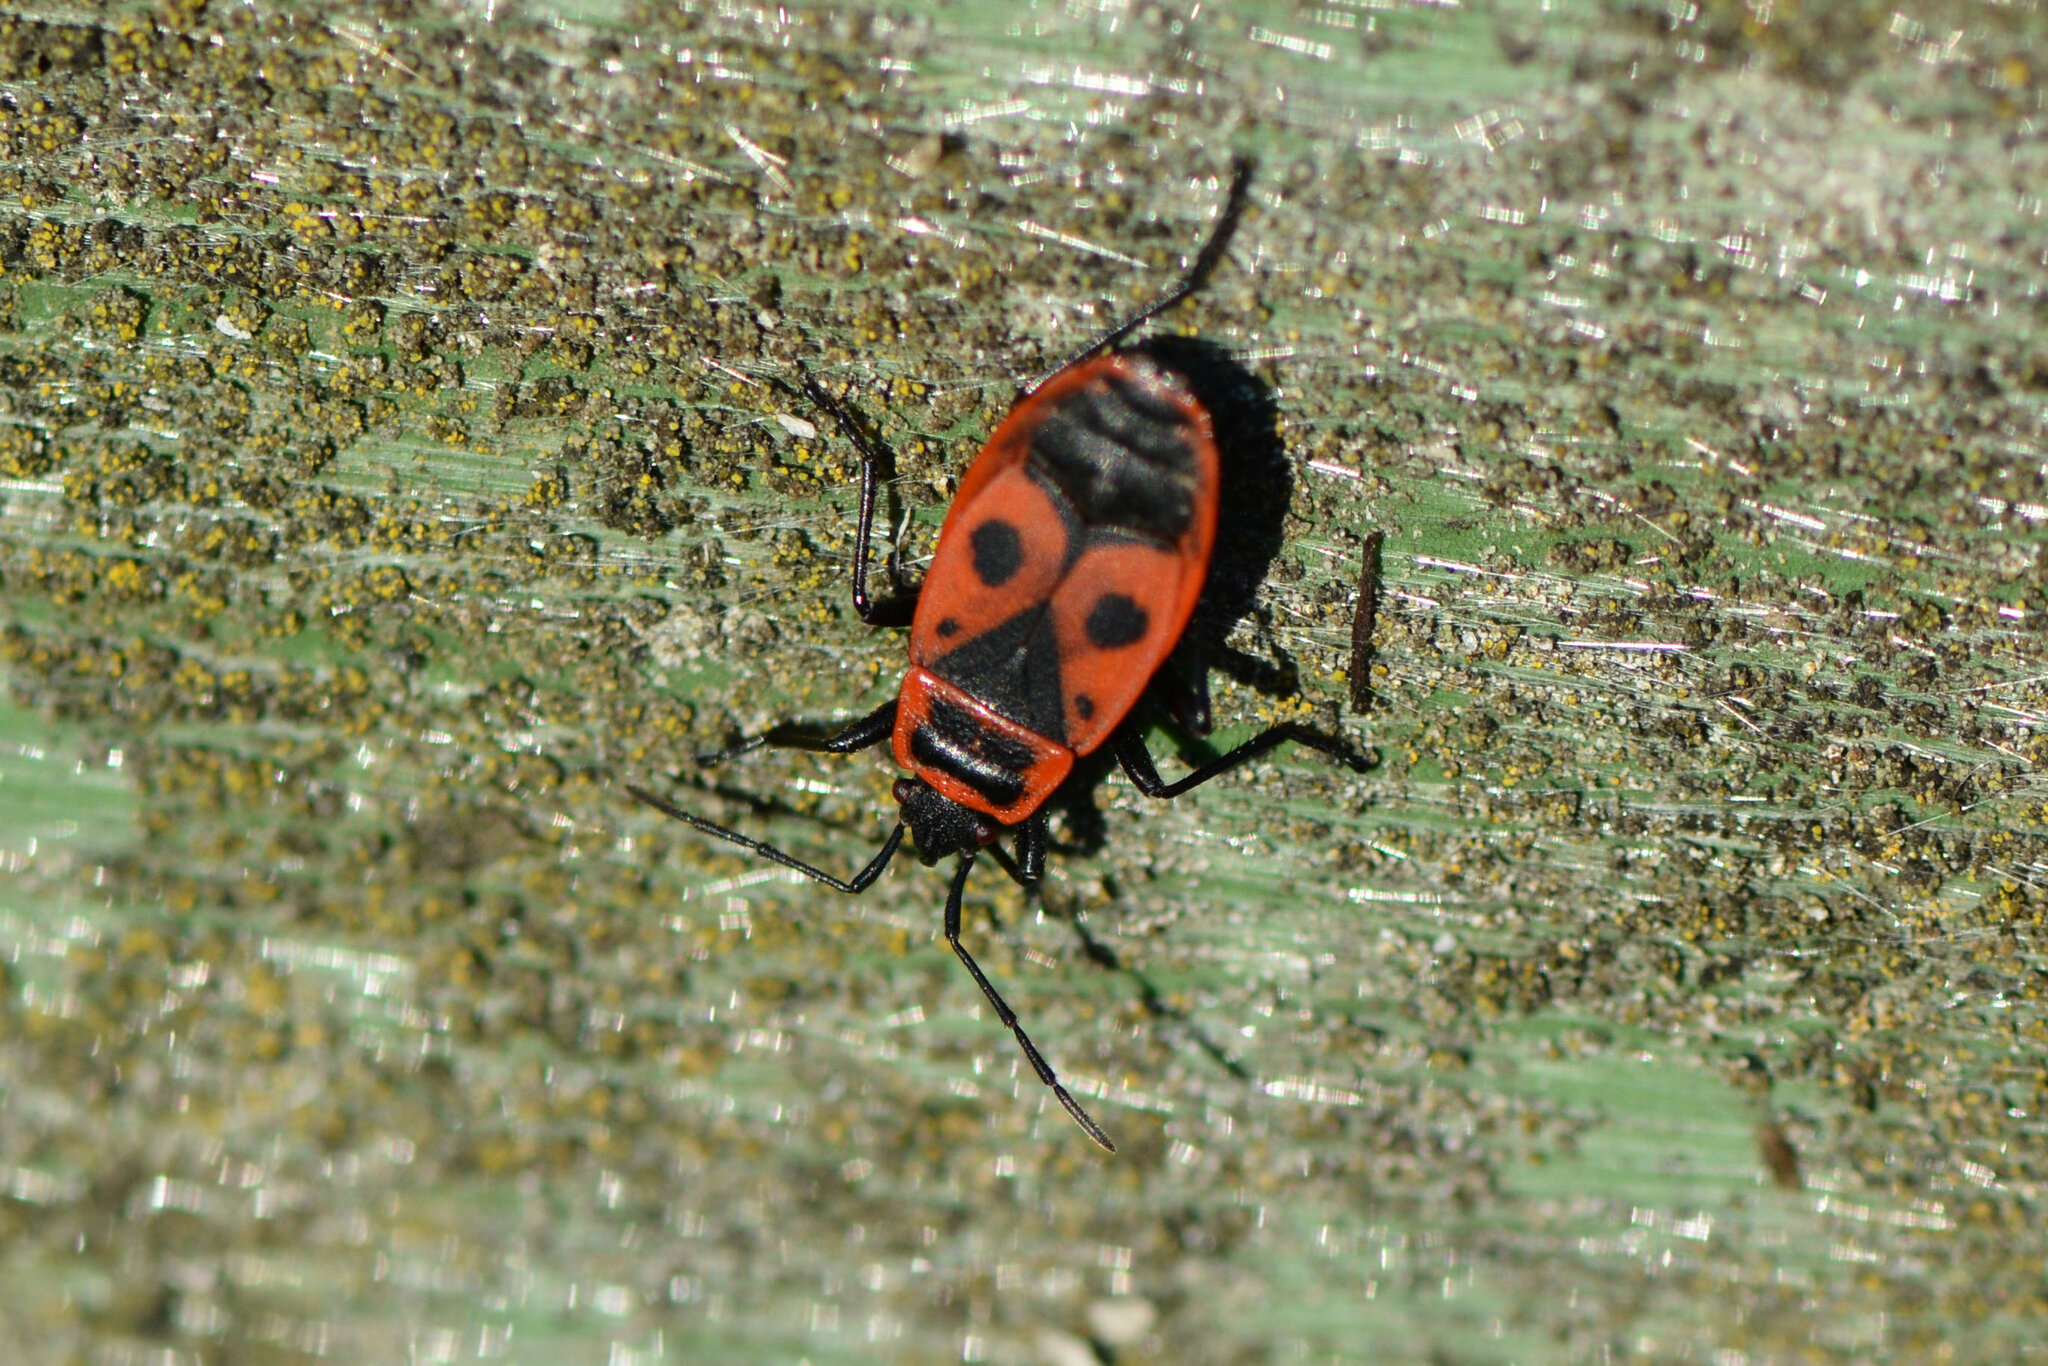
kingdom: Animalia
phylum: Arthropoda
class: Insecta
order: Hemiptera
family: Pyrrhocoridae
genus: Pyrrhocoris
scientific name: Pyrrhocoris apterus
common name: Firebug
